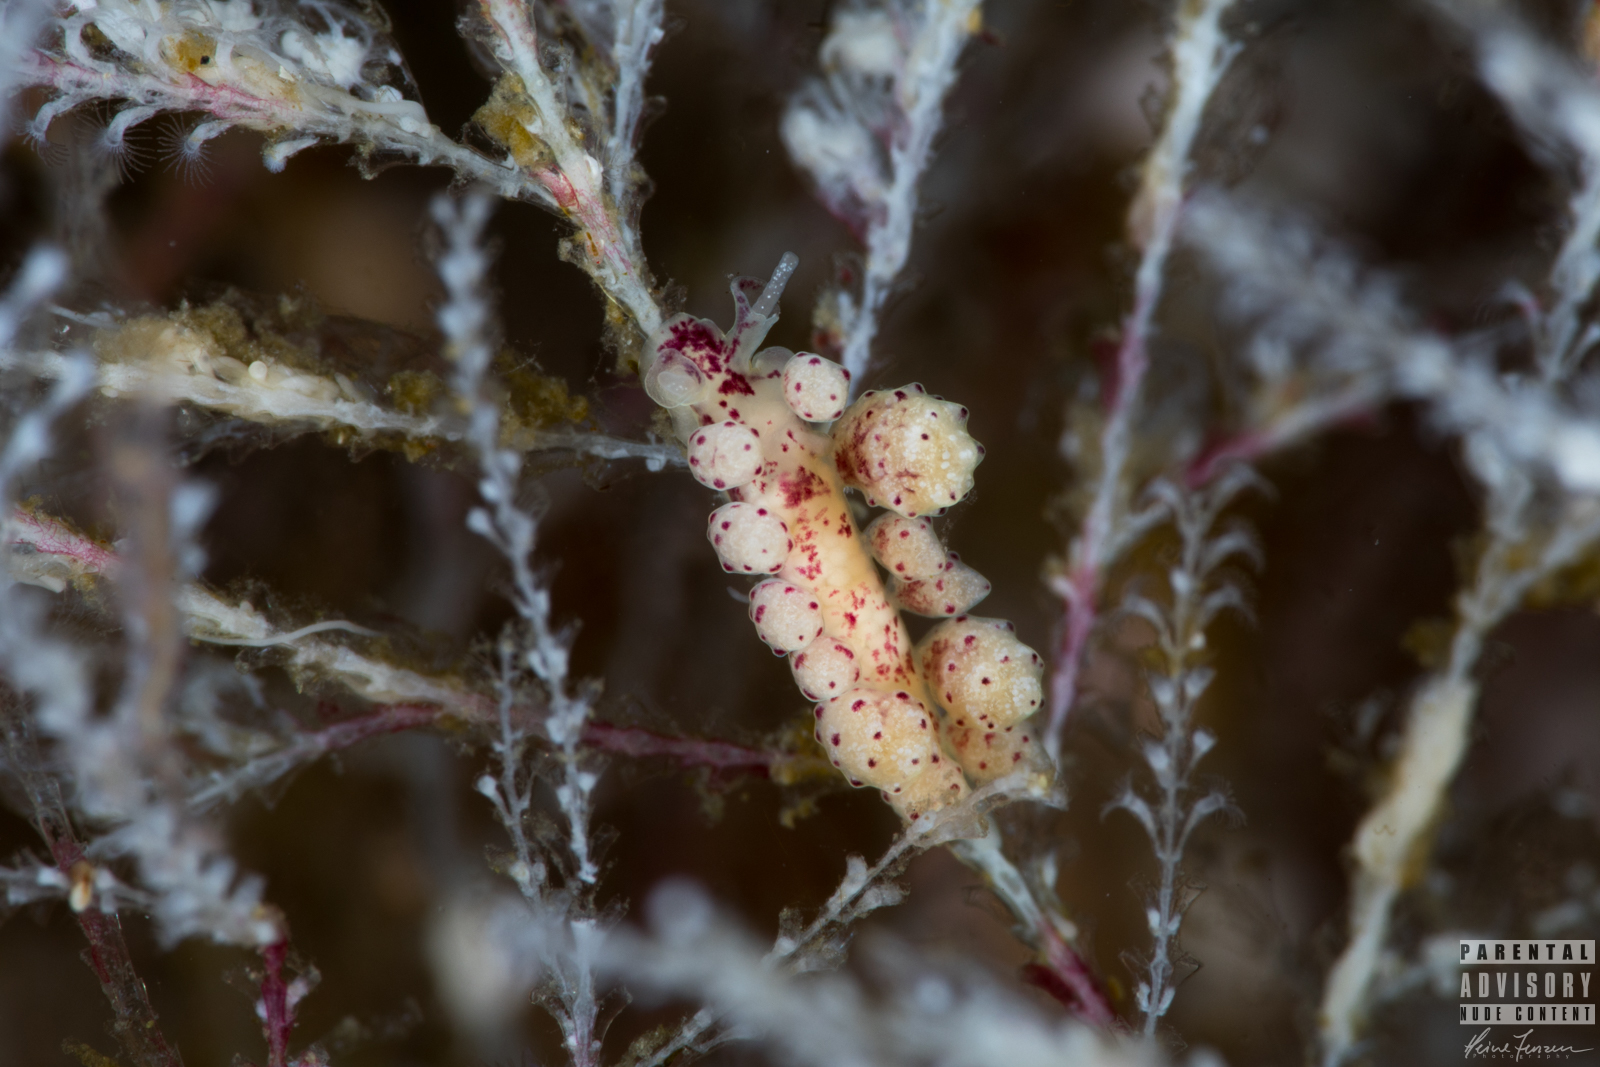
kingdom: Animalia
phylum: Mollusca
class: Gastropoda
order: Nudibranchia
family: Dotidae
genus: Doto
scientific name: Doto coronata
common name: Coronate doto
